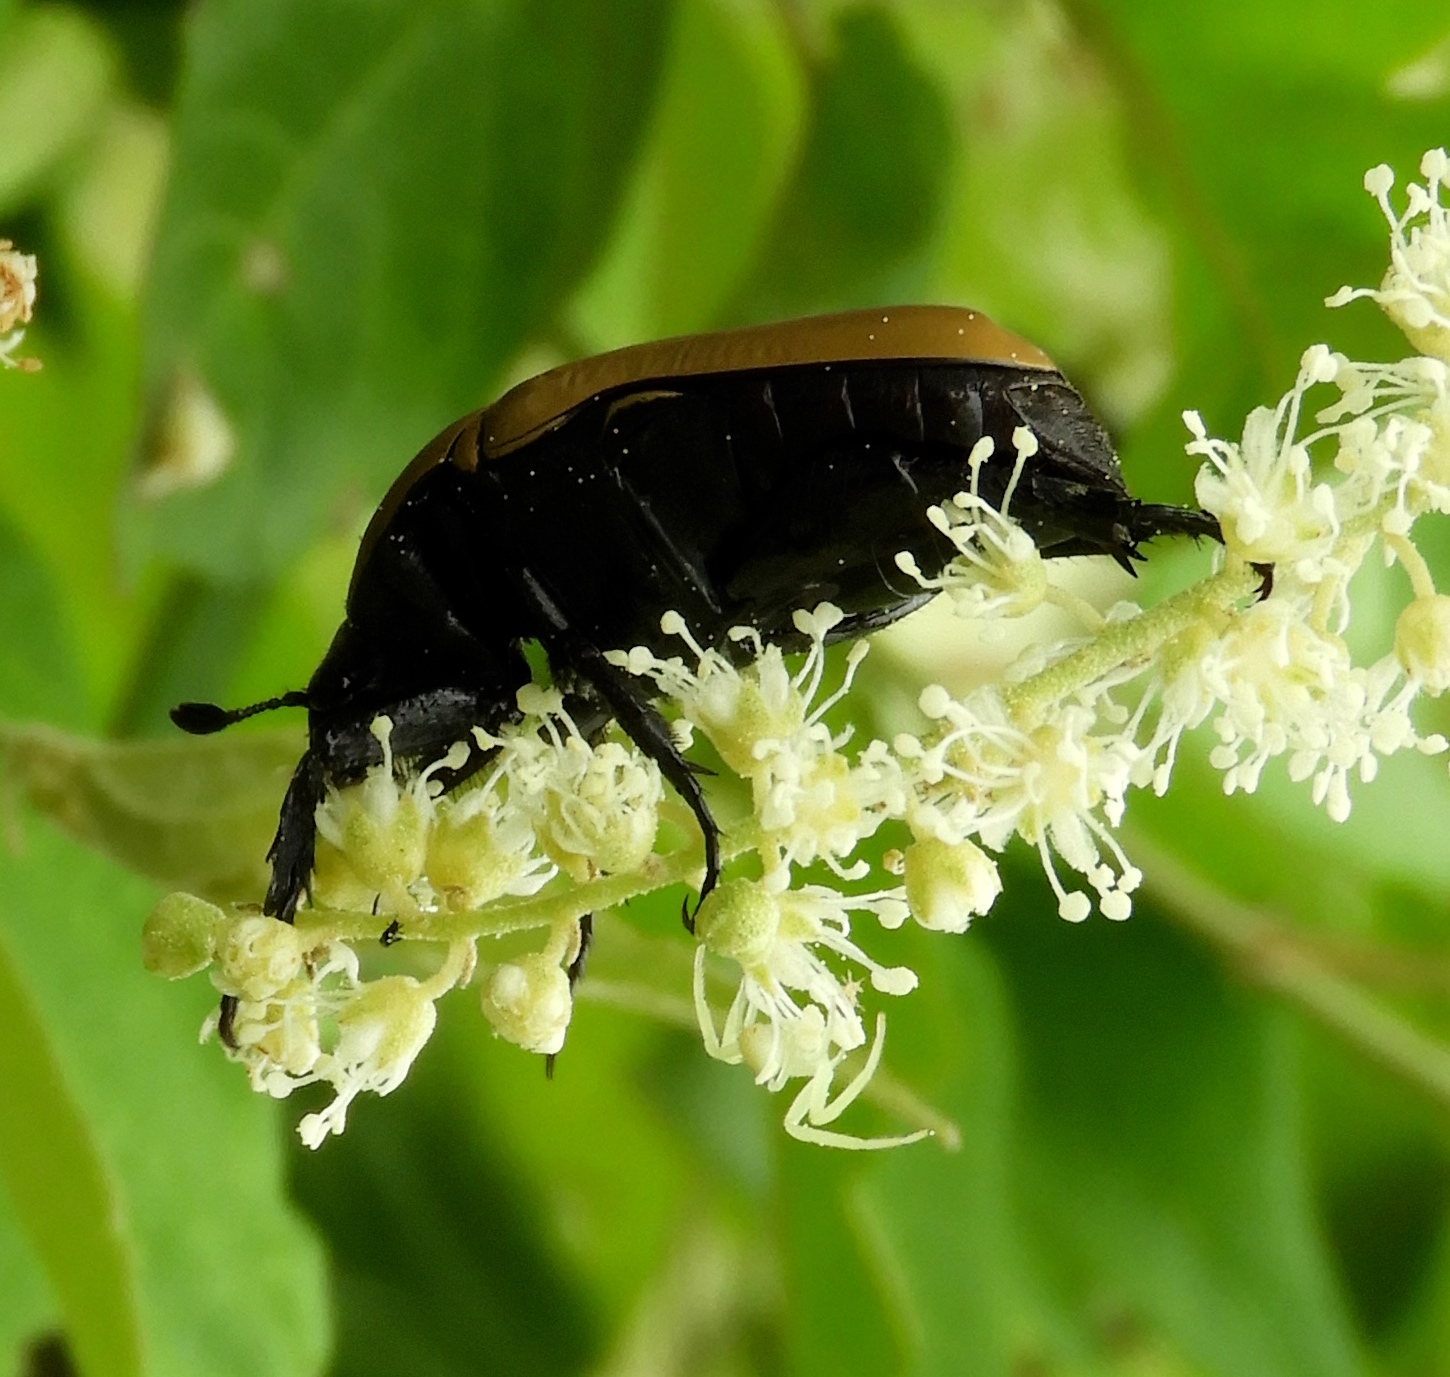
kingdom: Animalia
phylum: Arthropoda
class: Insecta
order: Coleoptera
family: Scarabaeidae
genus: Hologymnetis
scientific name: Hologymnetis cinerea
